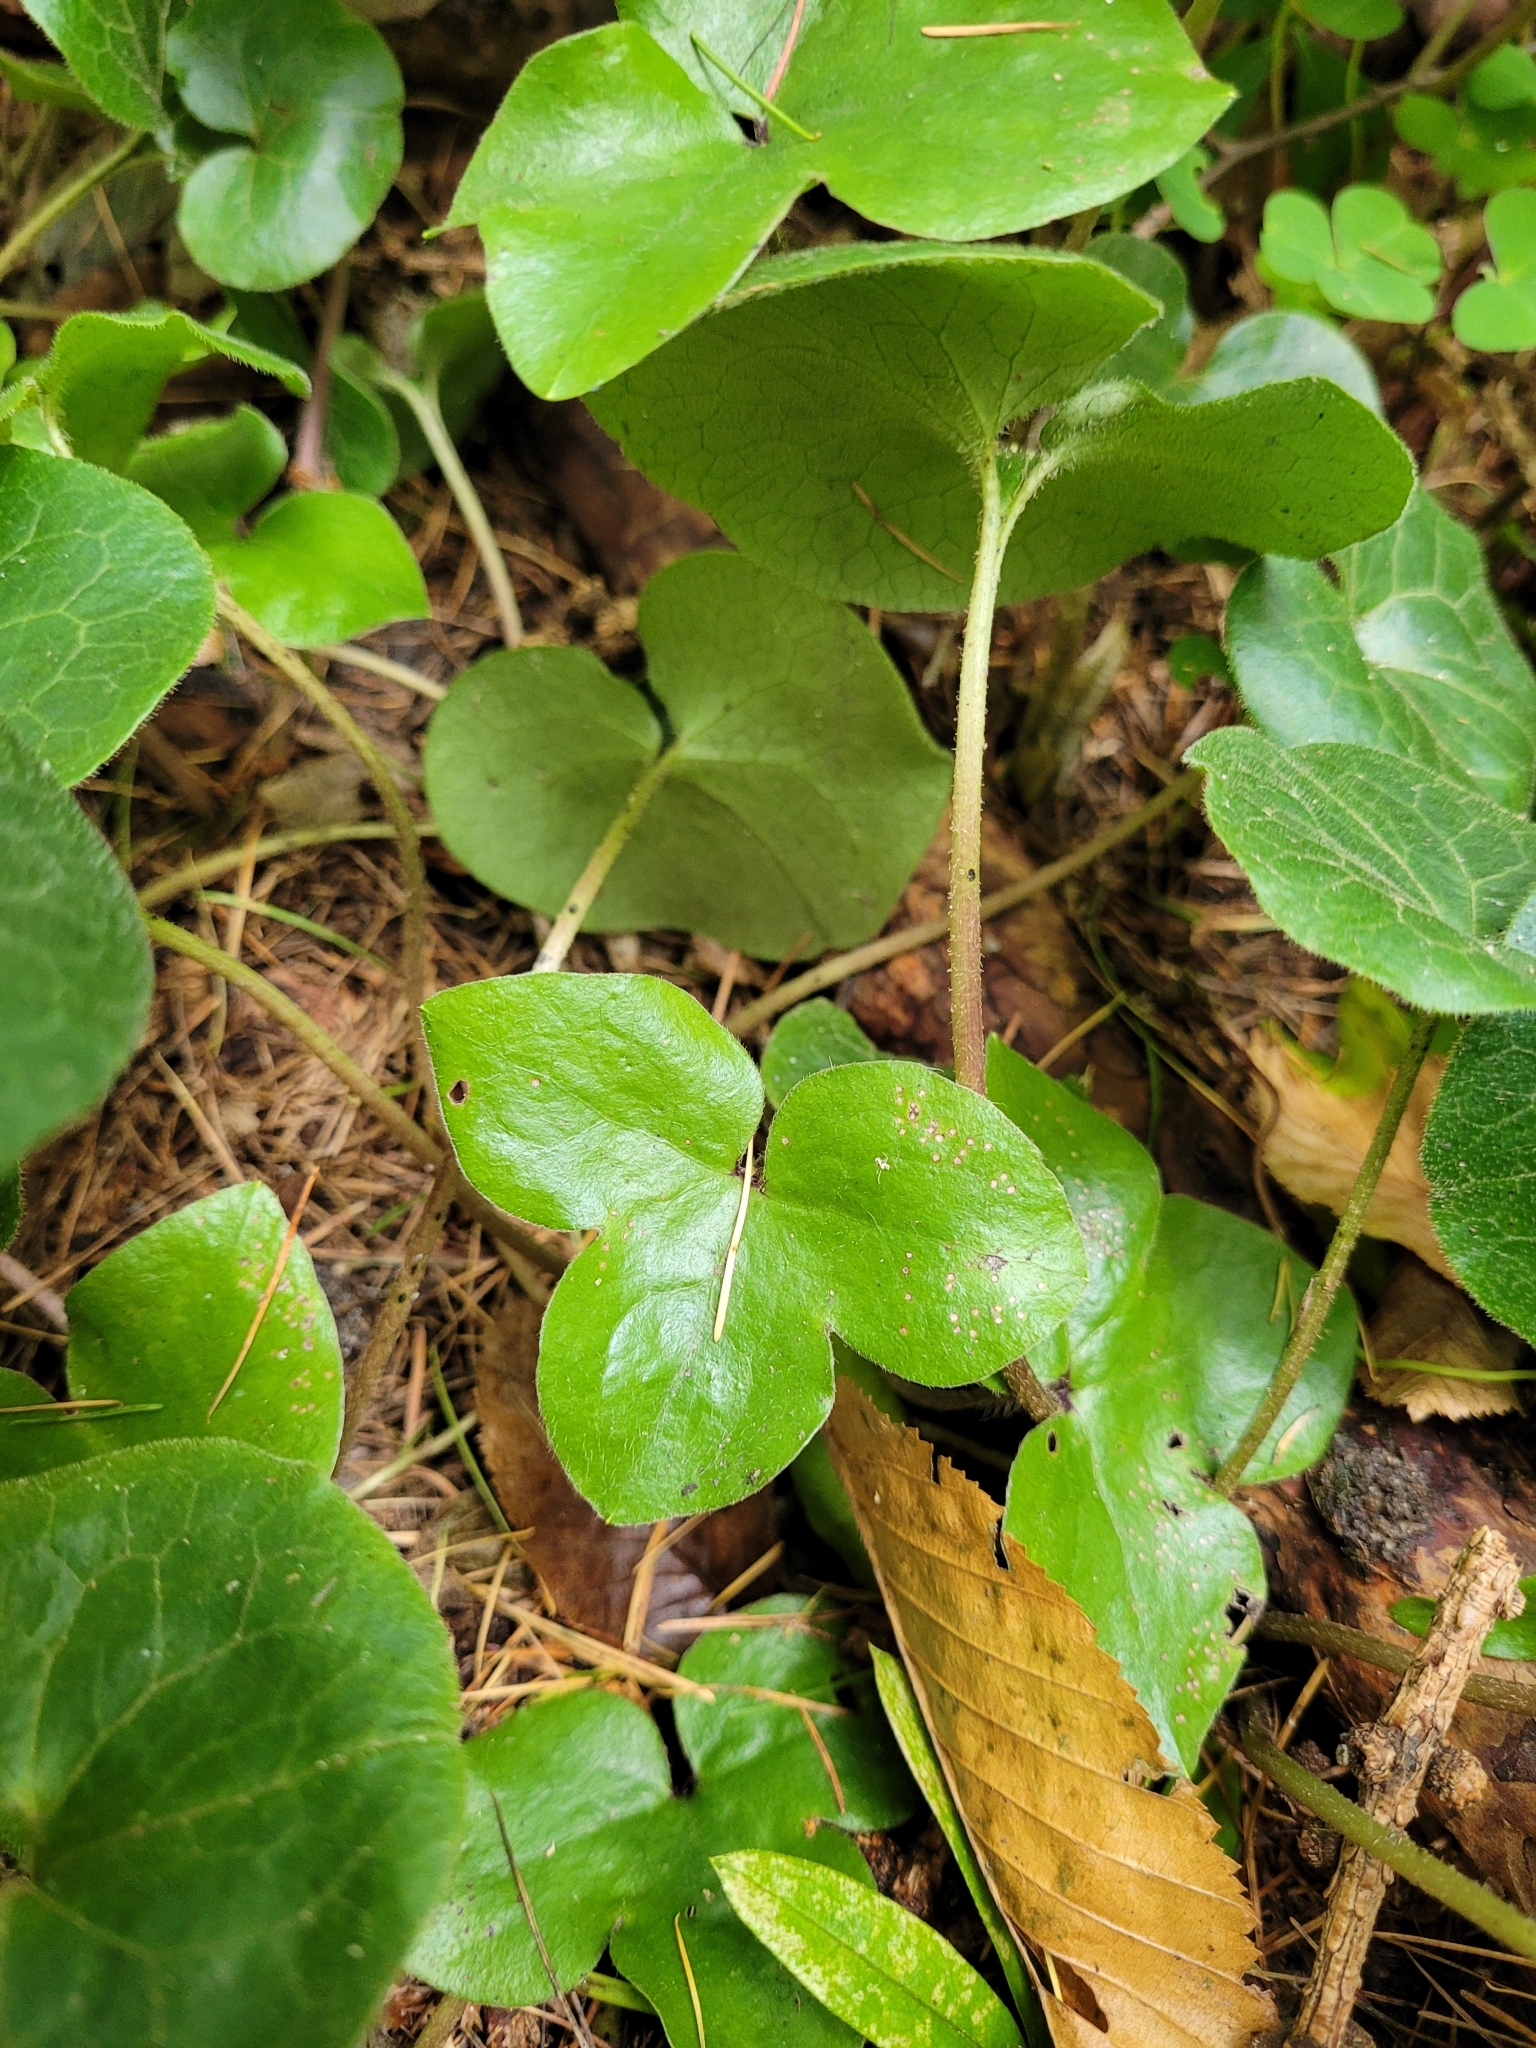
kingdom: Plantae
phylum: Tracheophyta
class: Magnoliopsida
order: Ranunculales
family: Ranunculaceae
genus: Hepatica
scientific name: Hepatica nobilis
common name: Liverleaf
